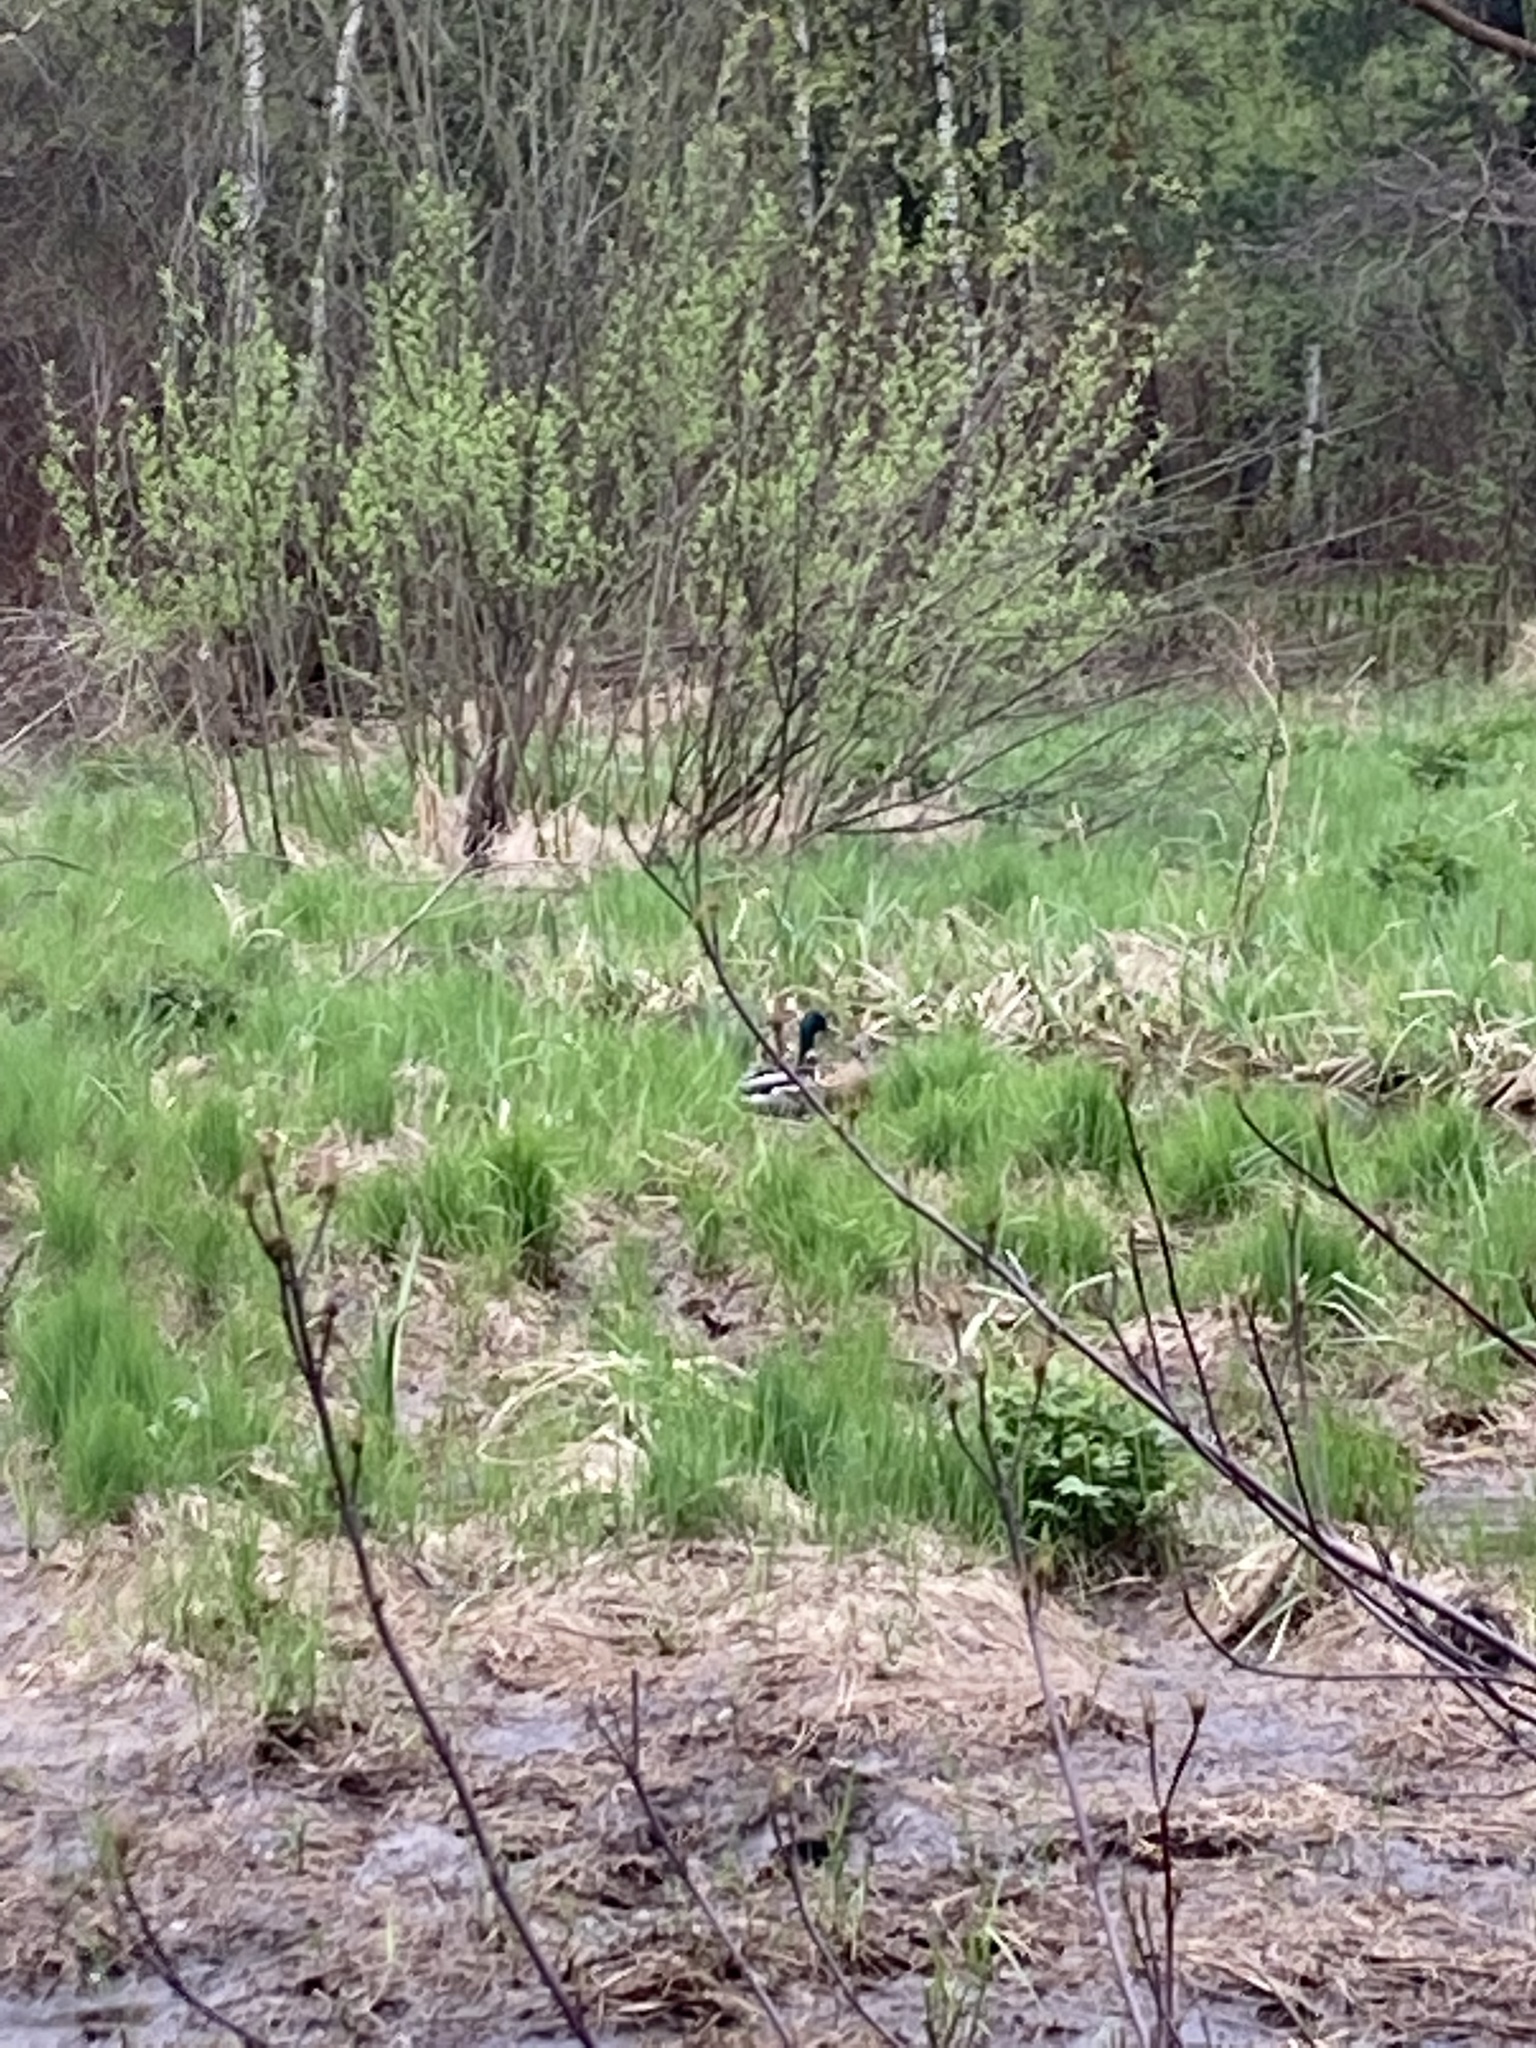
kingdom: Animalia
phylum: Chordata
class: Aves
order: Anseriformes
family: Anatidae
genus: Anas
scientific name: Anas platyrhynchos
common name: Mallard
